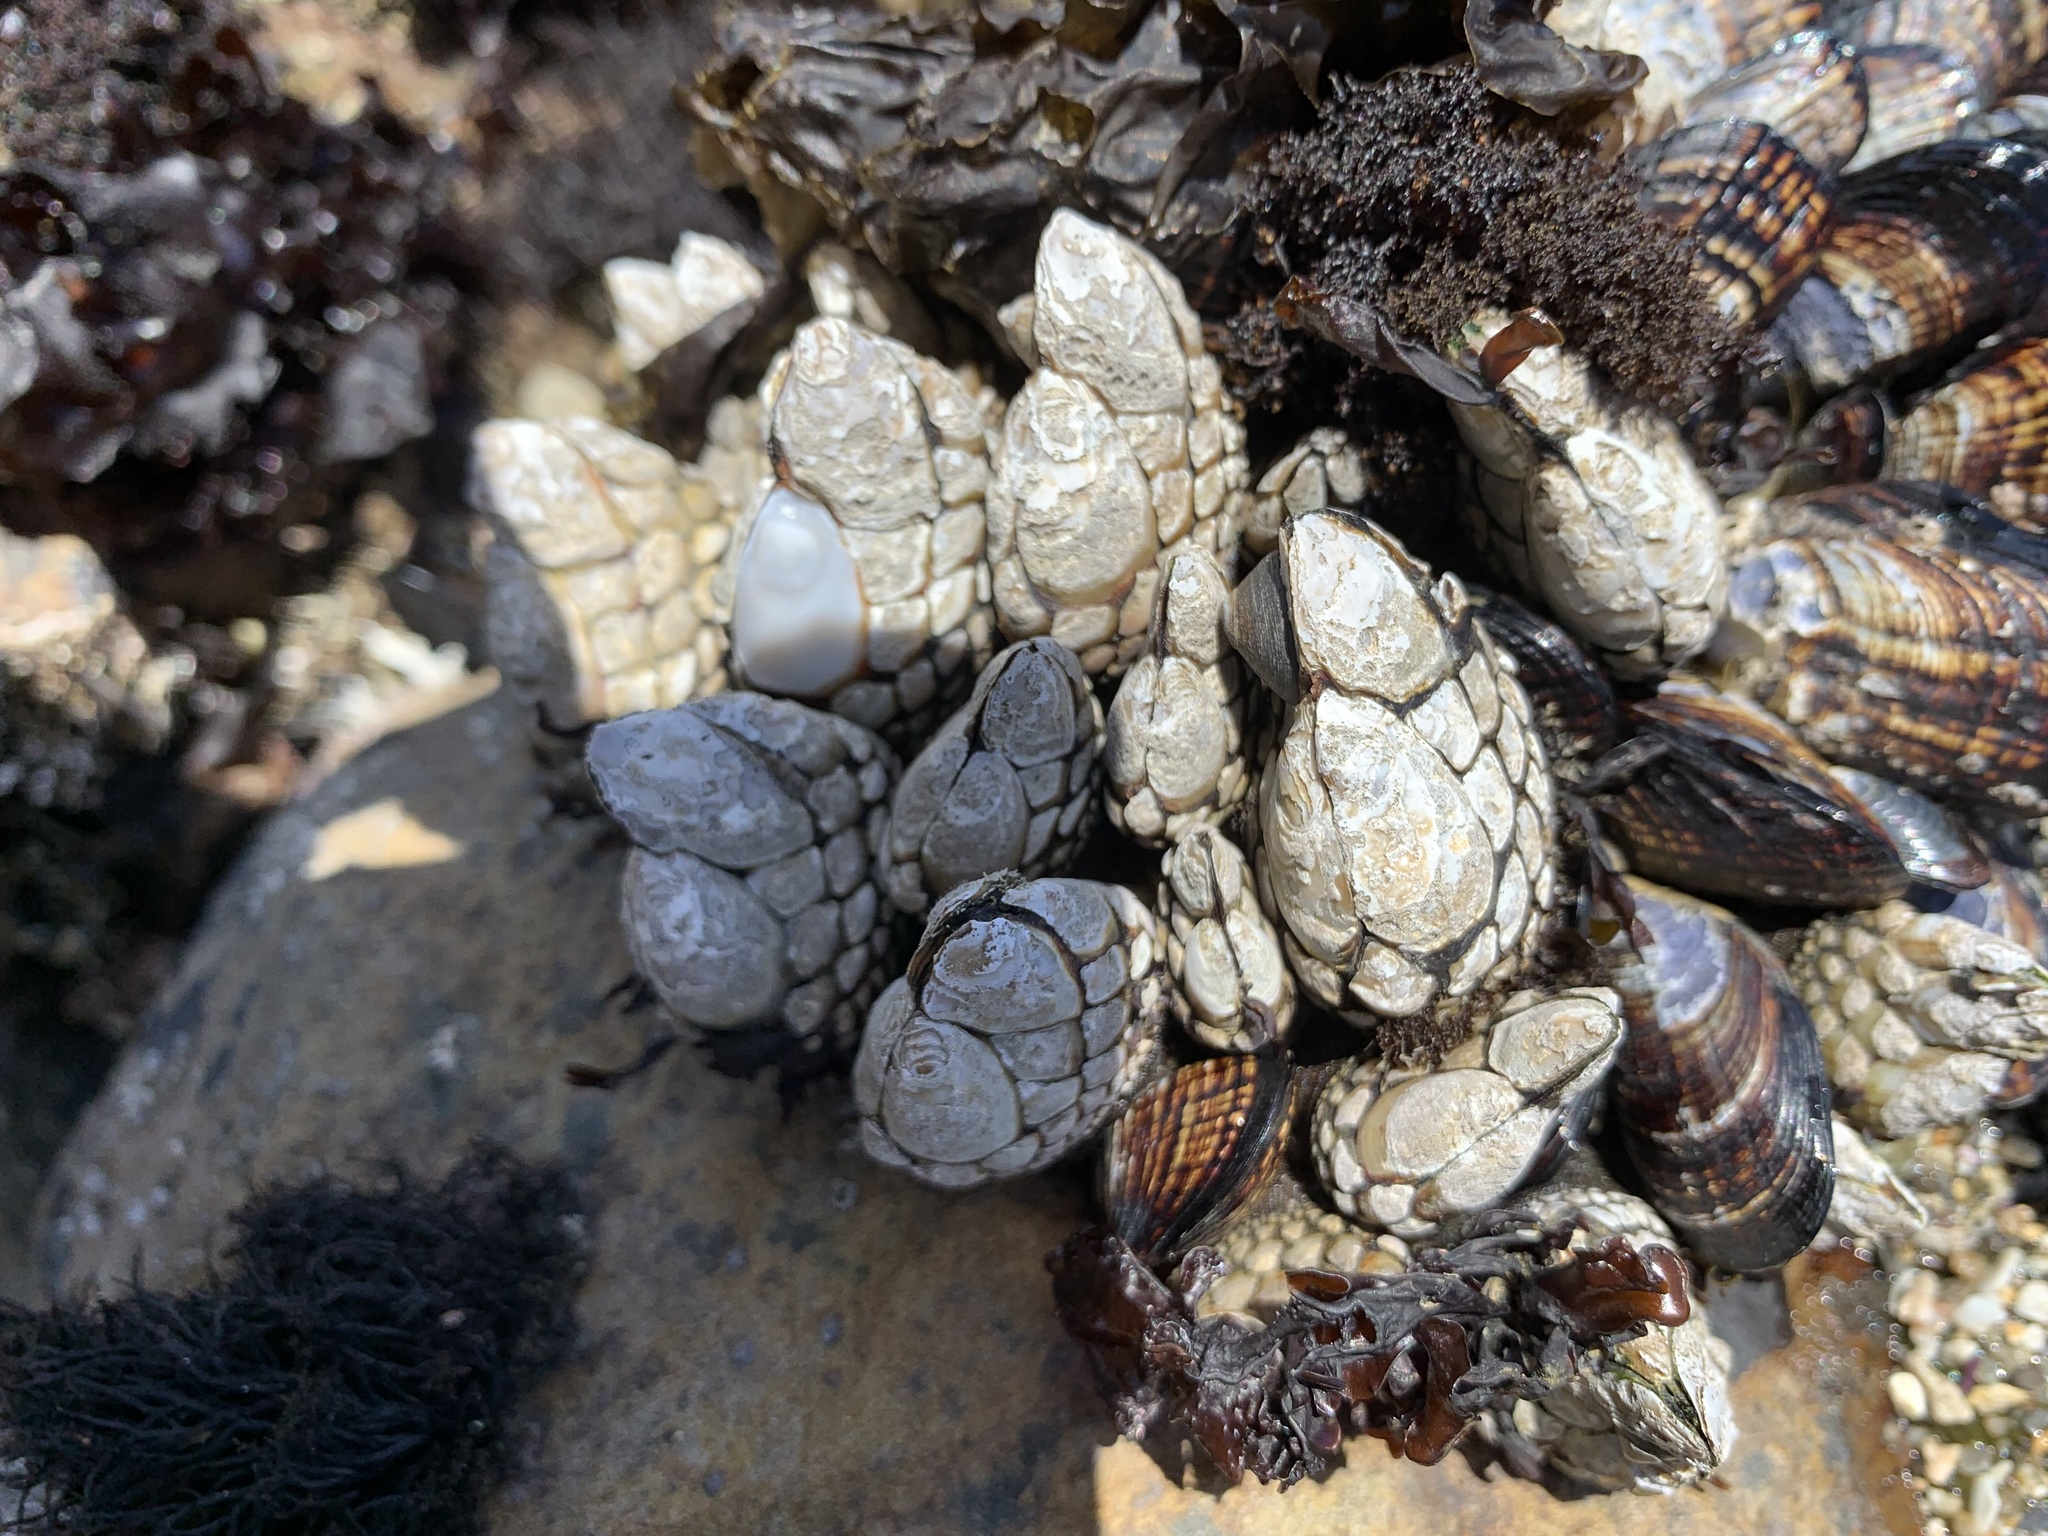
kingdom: Animalia
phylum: Arthropoda
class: Maxillopoda
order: Pedunculata
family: Pollicipedidae
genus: Pollicipes
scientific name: Pollicipes polymerus
